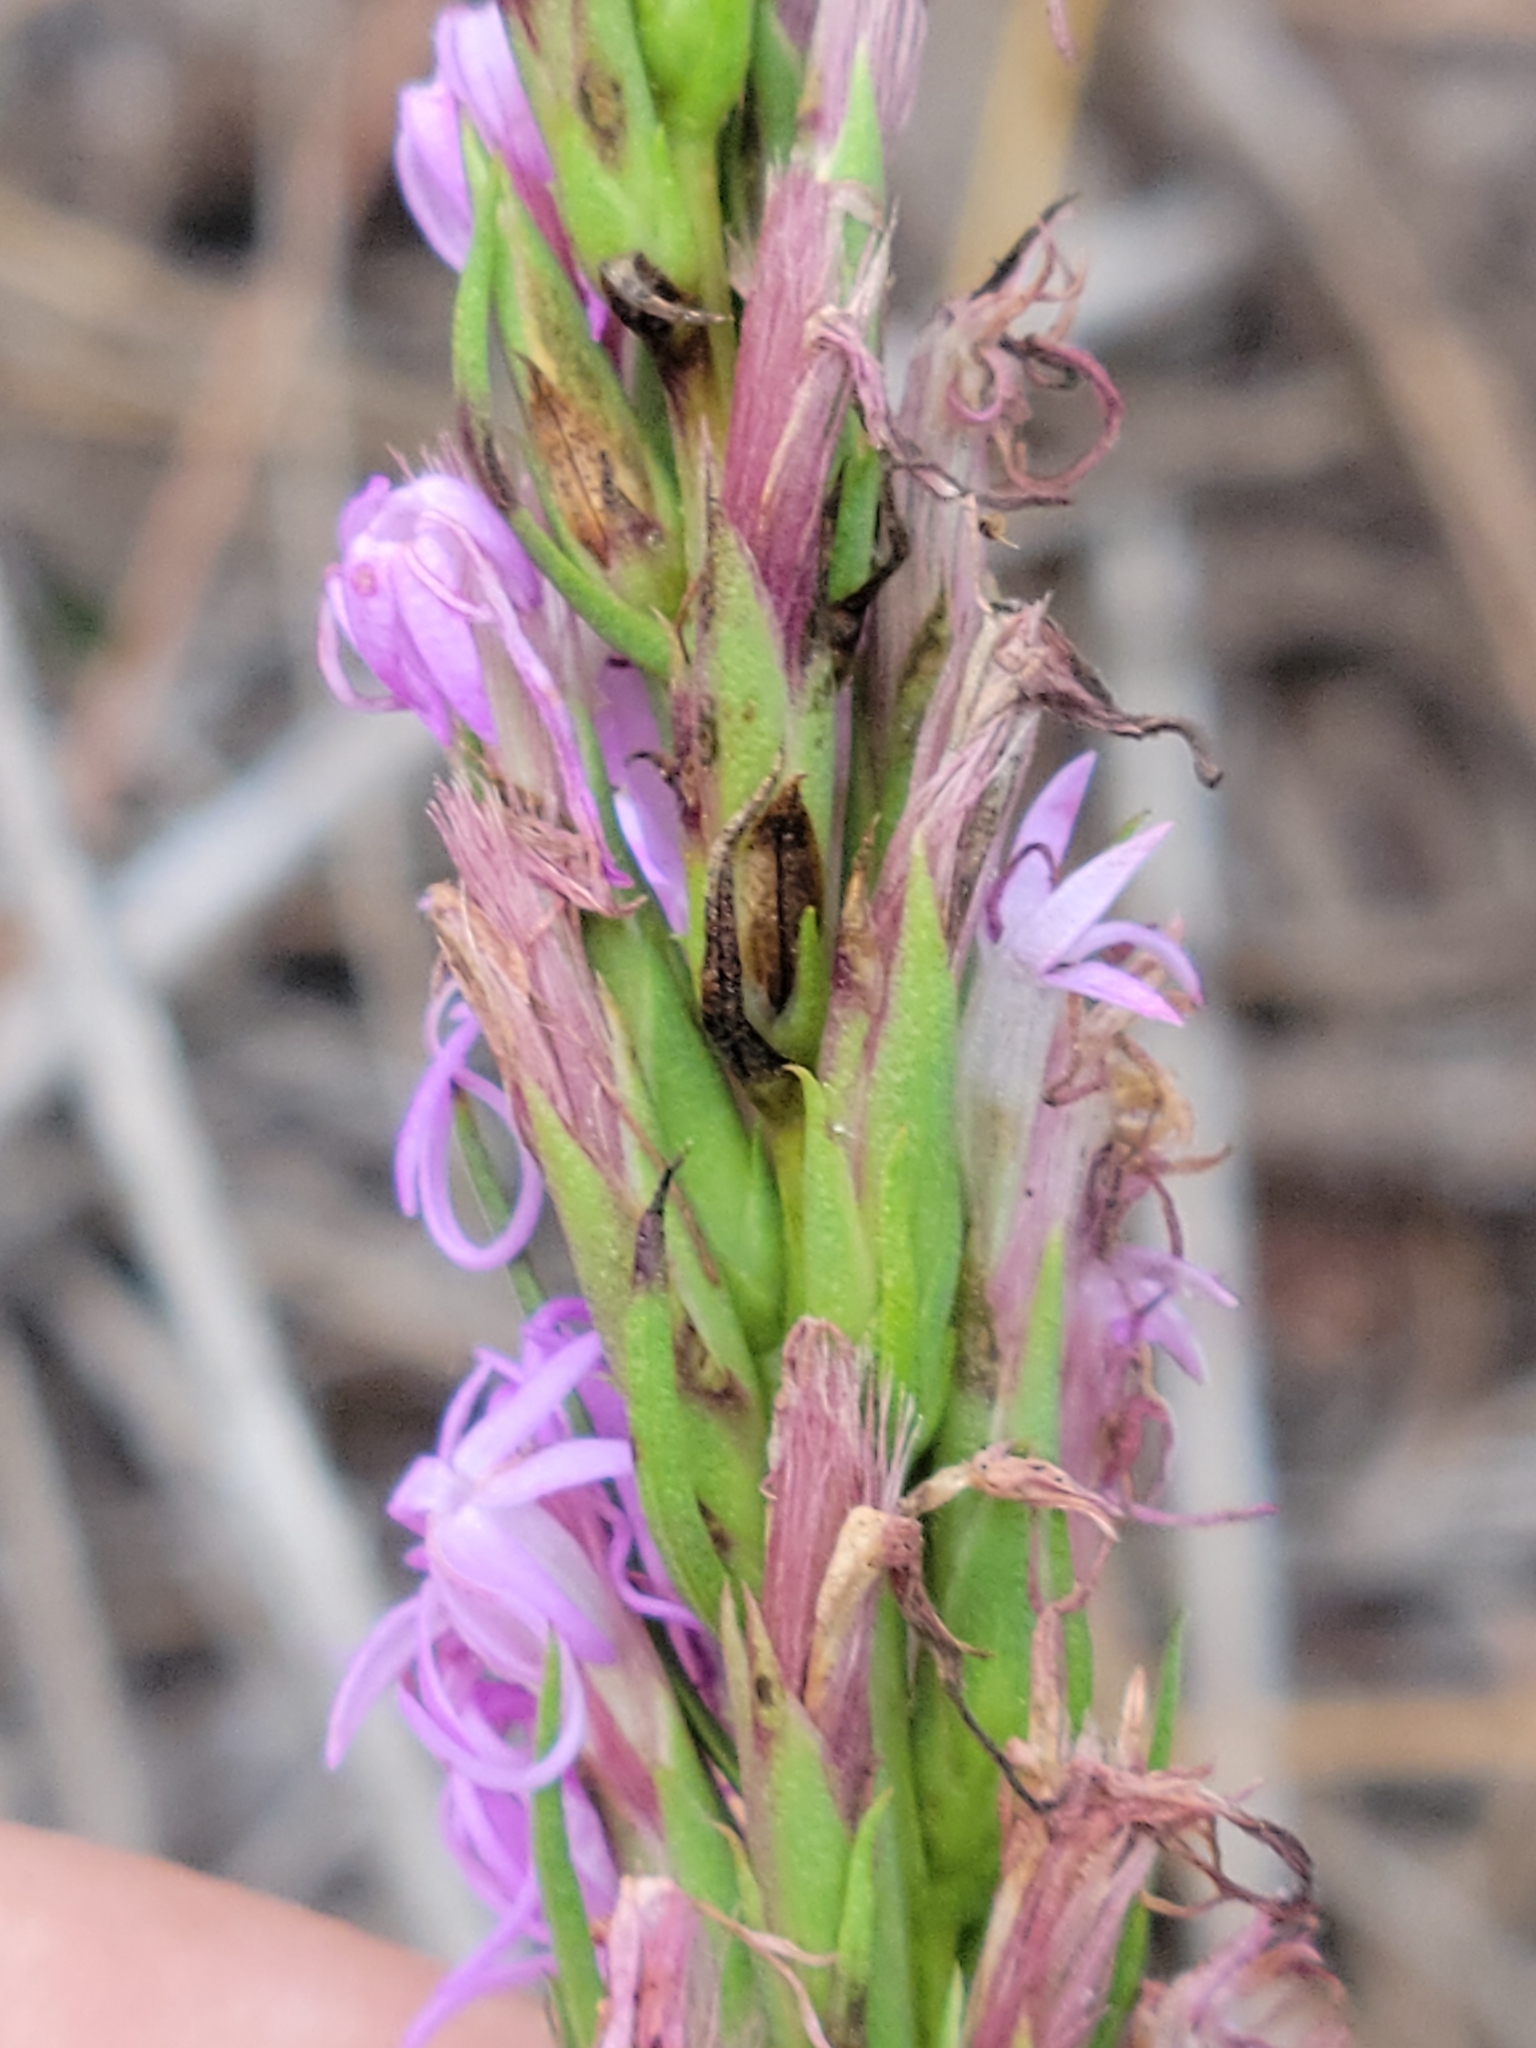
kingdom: Plantae
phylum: Tracheophyta
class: Magnoliopsida
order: Asterales
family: Asteraceae
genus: Liatris
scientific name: Liatris chapmanii
